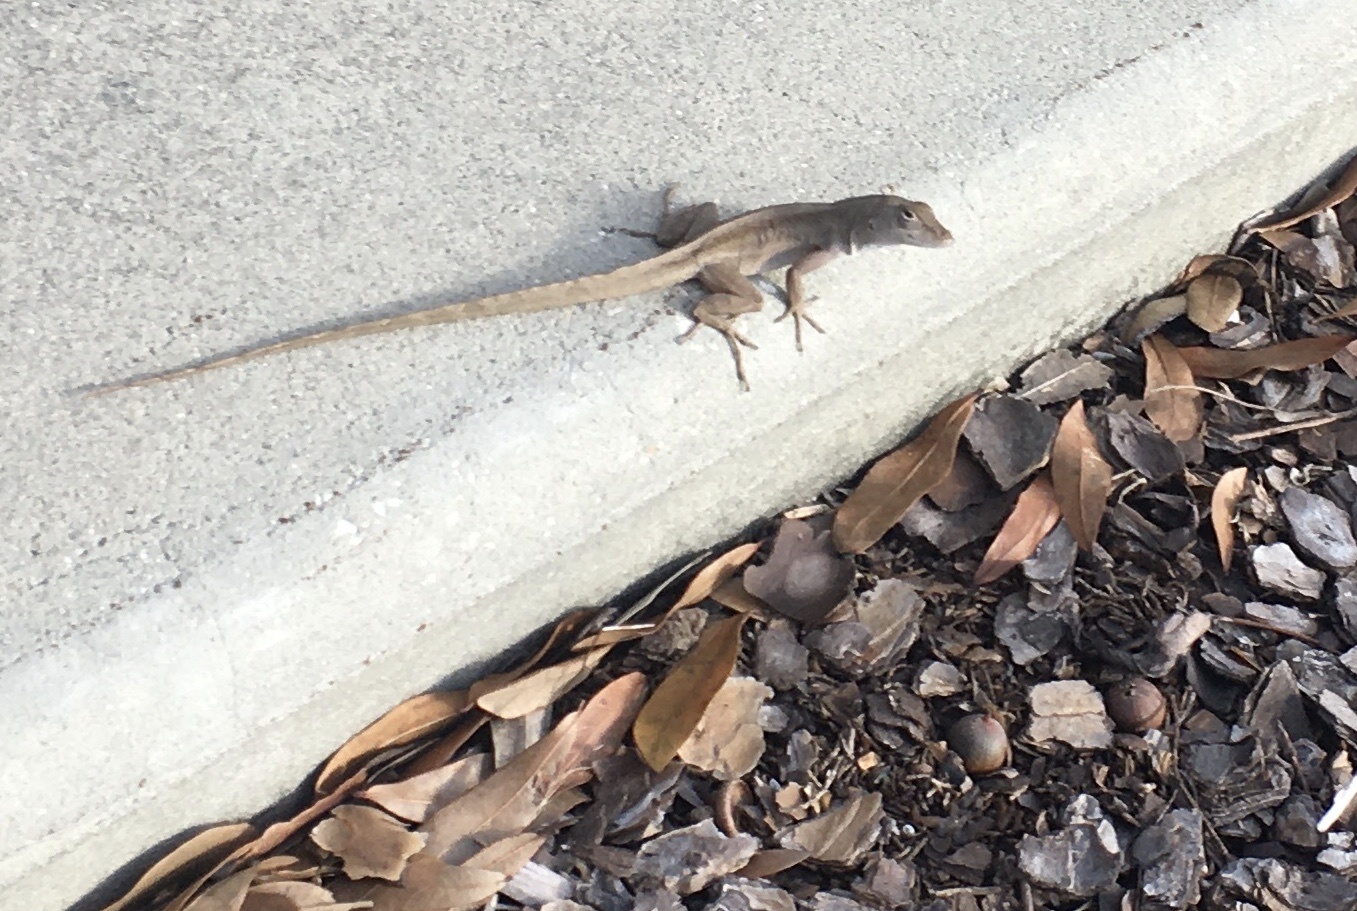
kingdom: Animalia
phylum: Chordata
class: Squamata
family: Dactyloidae
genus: Anolis
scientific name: Anolis sagrei
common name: Brown anole
